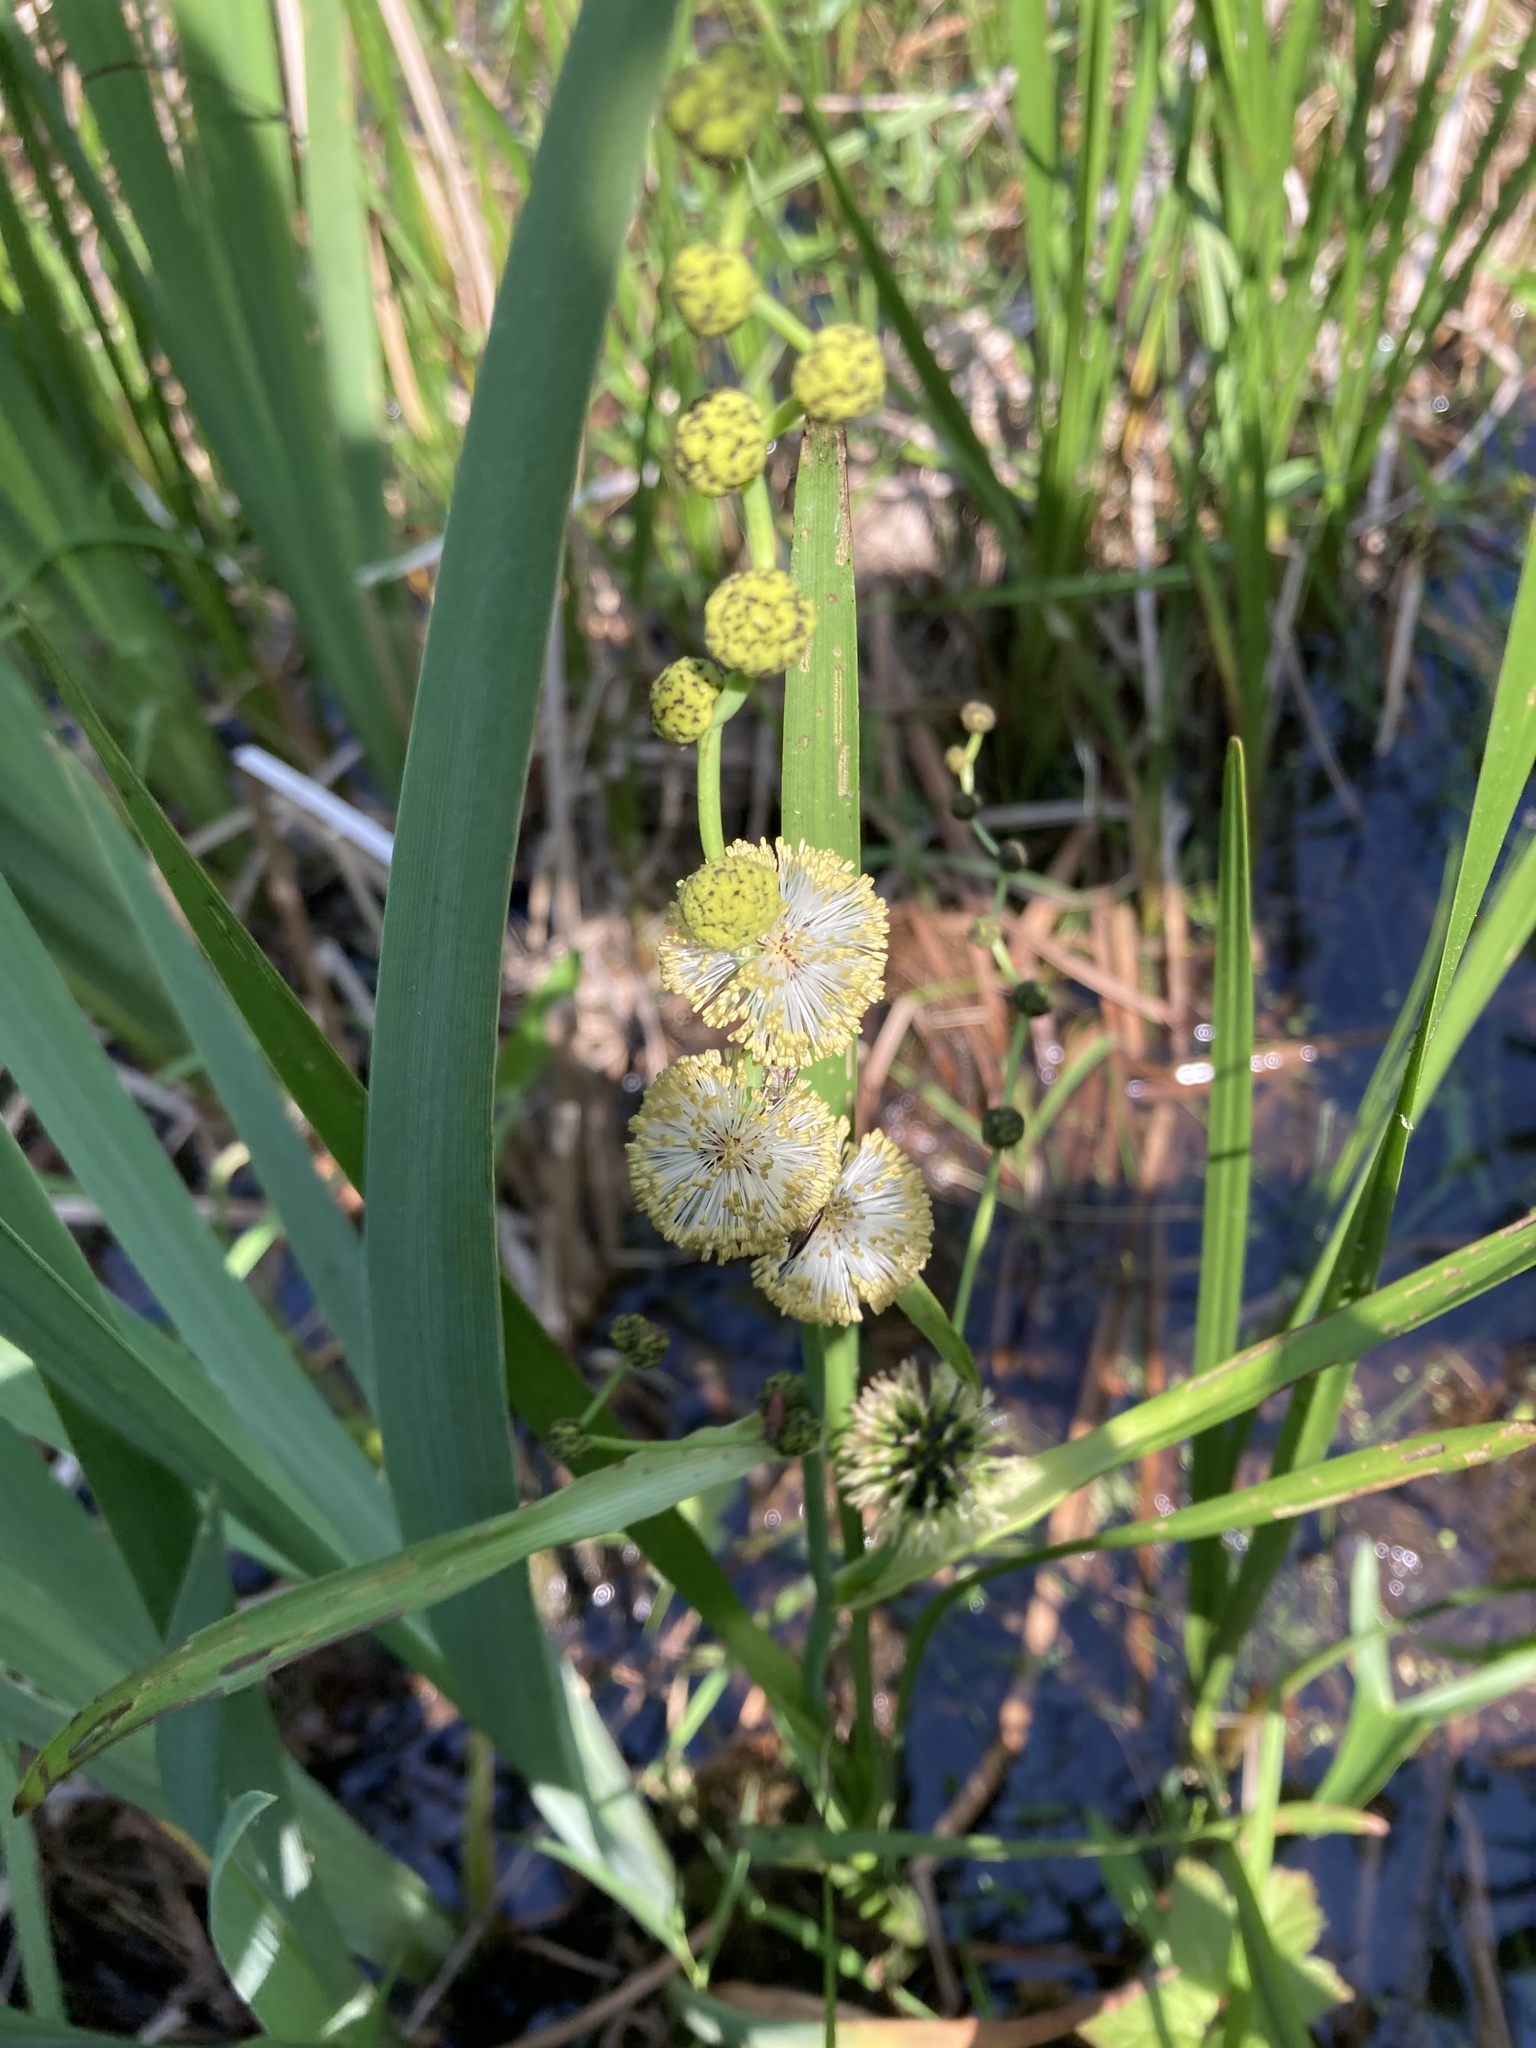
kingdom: Plantae
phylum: Tracheophyta
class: Liliopsida
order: Poales
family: Typhaceae
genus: Sparganium
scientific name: Sparganium eurycarpum
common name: Broad-fruited burreed
